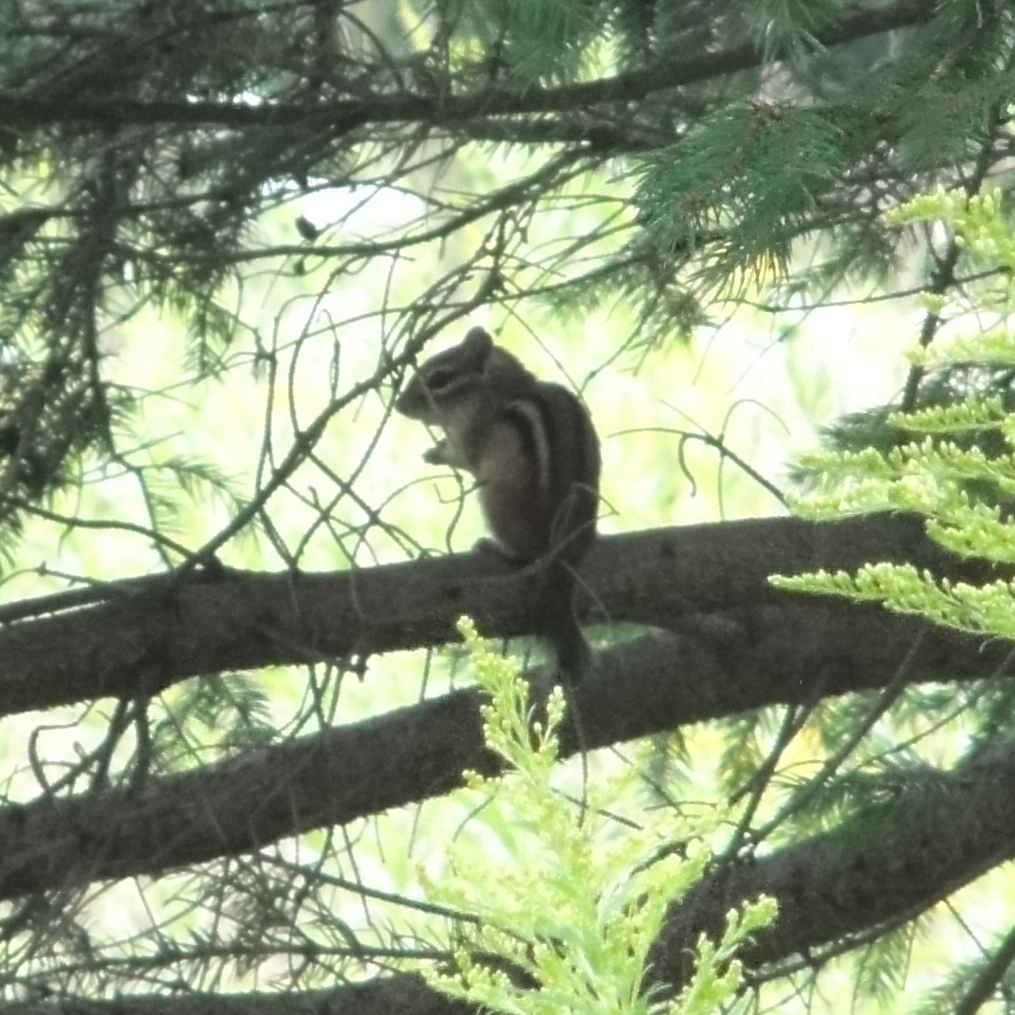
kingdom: Animalia
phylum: Chordata
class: Mammalia
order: Rodentia
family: Sciuridae
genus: Tamias
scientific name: Tamias striatus
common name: Eastern chipmunk
